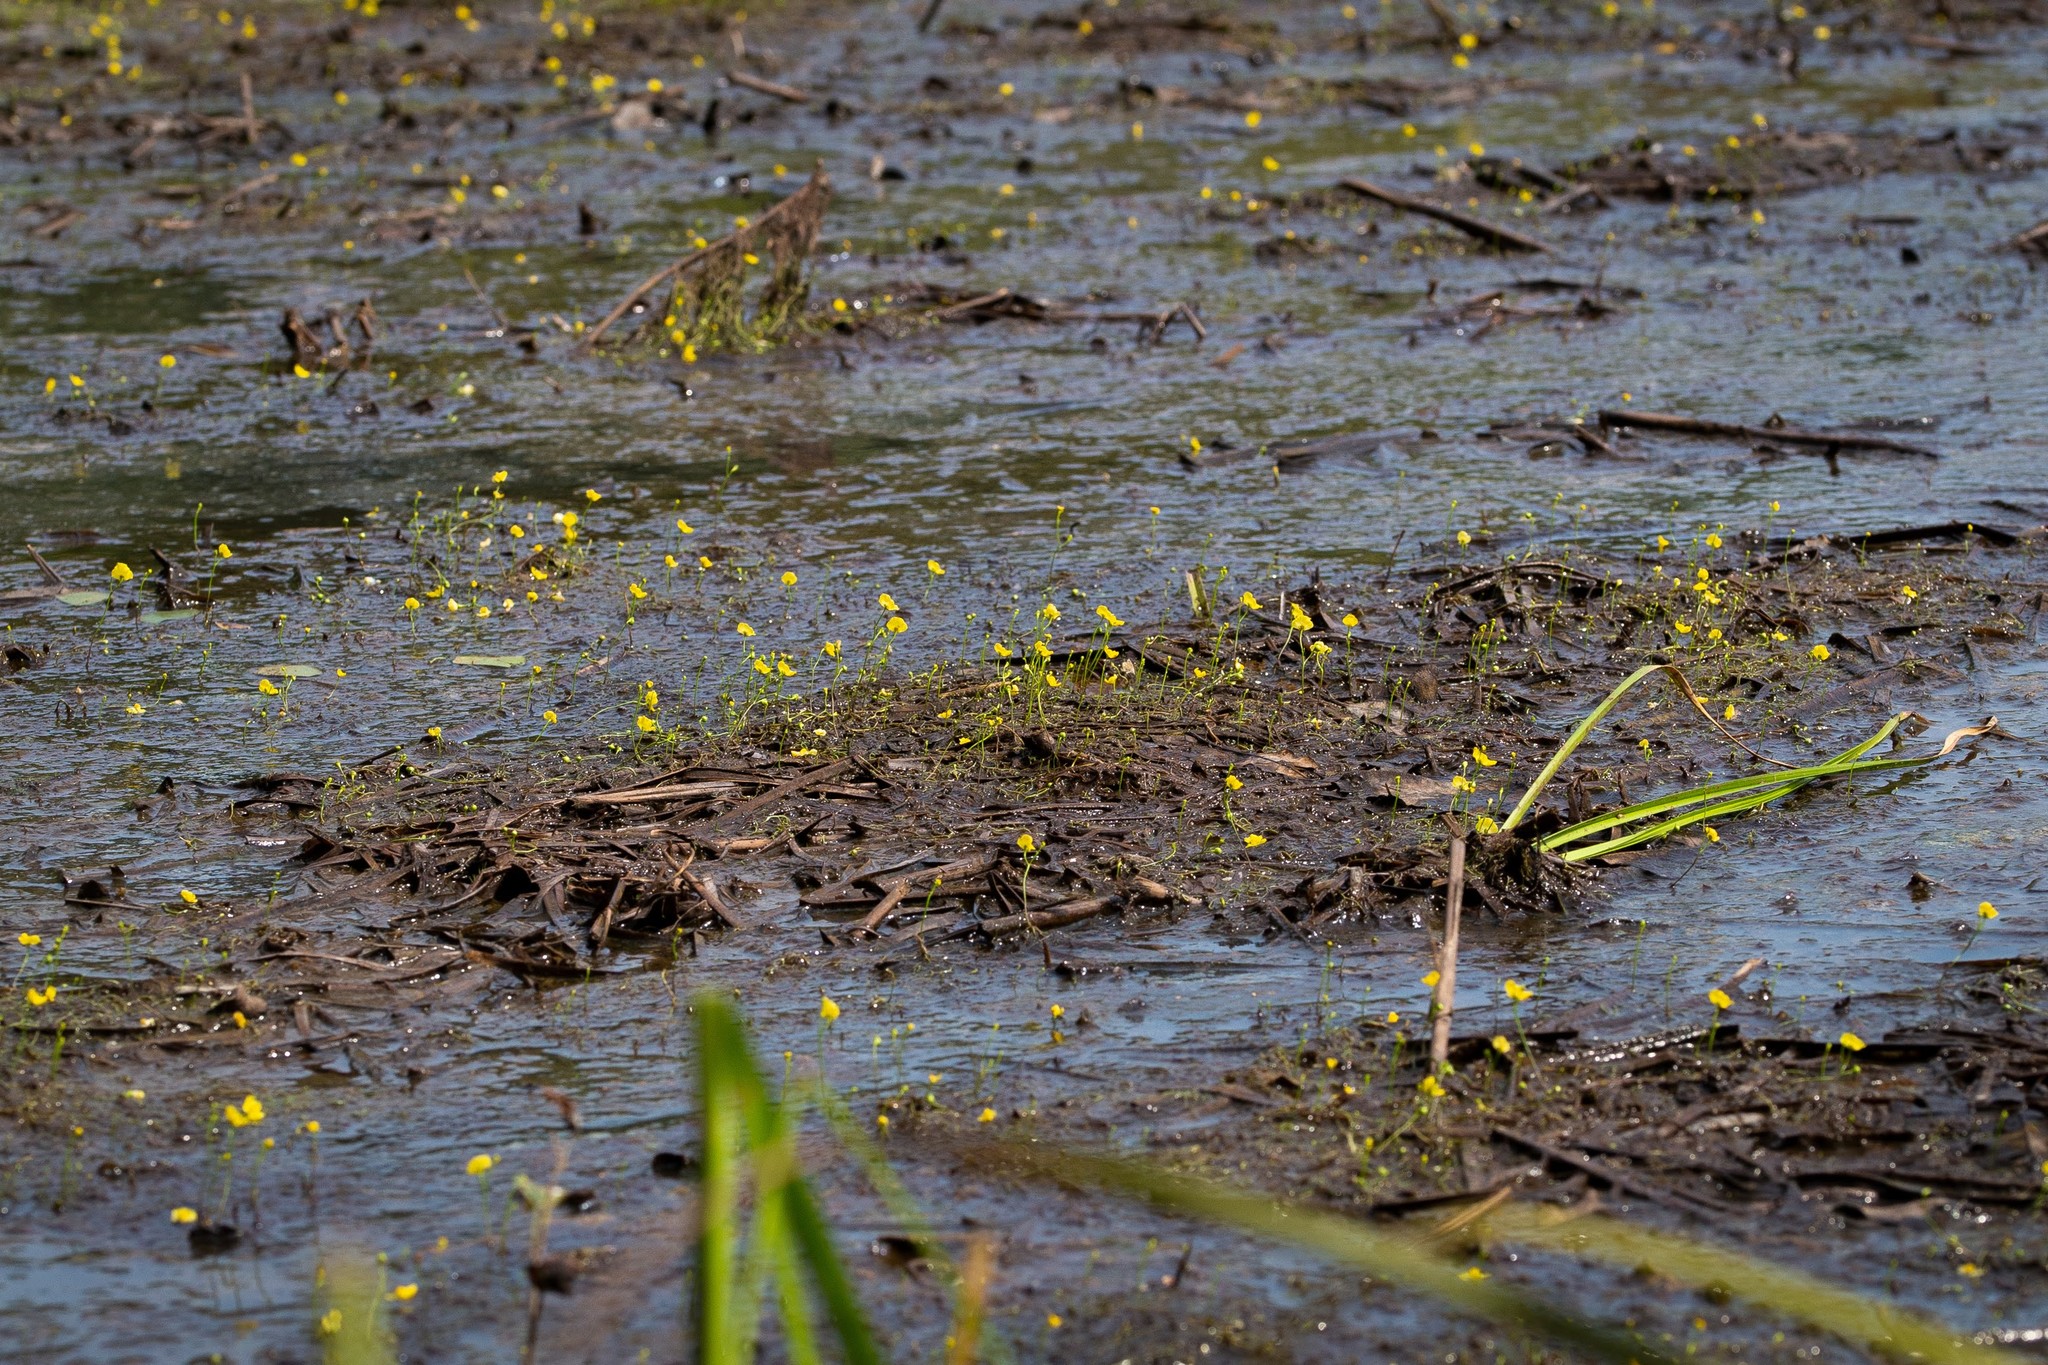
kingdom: Plantae
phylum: Tracheophyta
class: Magnoliopsida
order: Lamiales
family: Lentibulariaceae
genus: Utricularia
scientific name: Utricularia gibba
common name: Humped bladderwort
